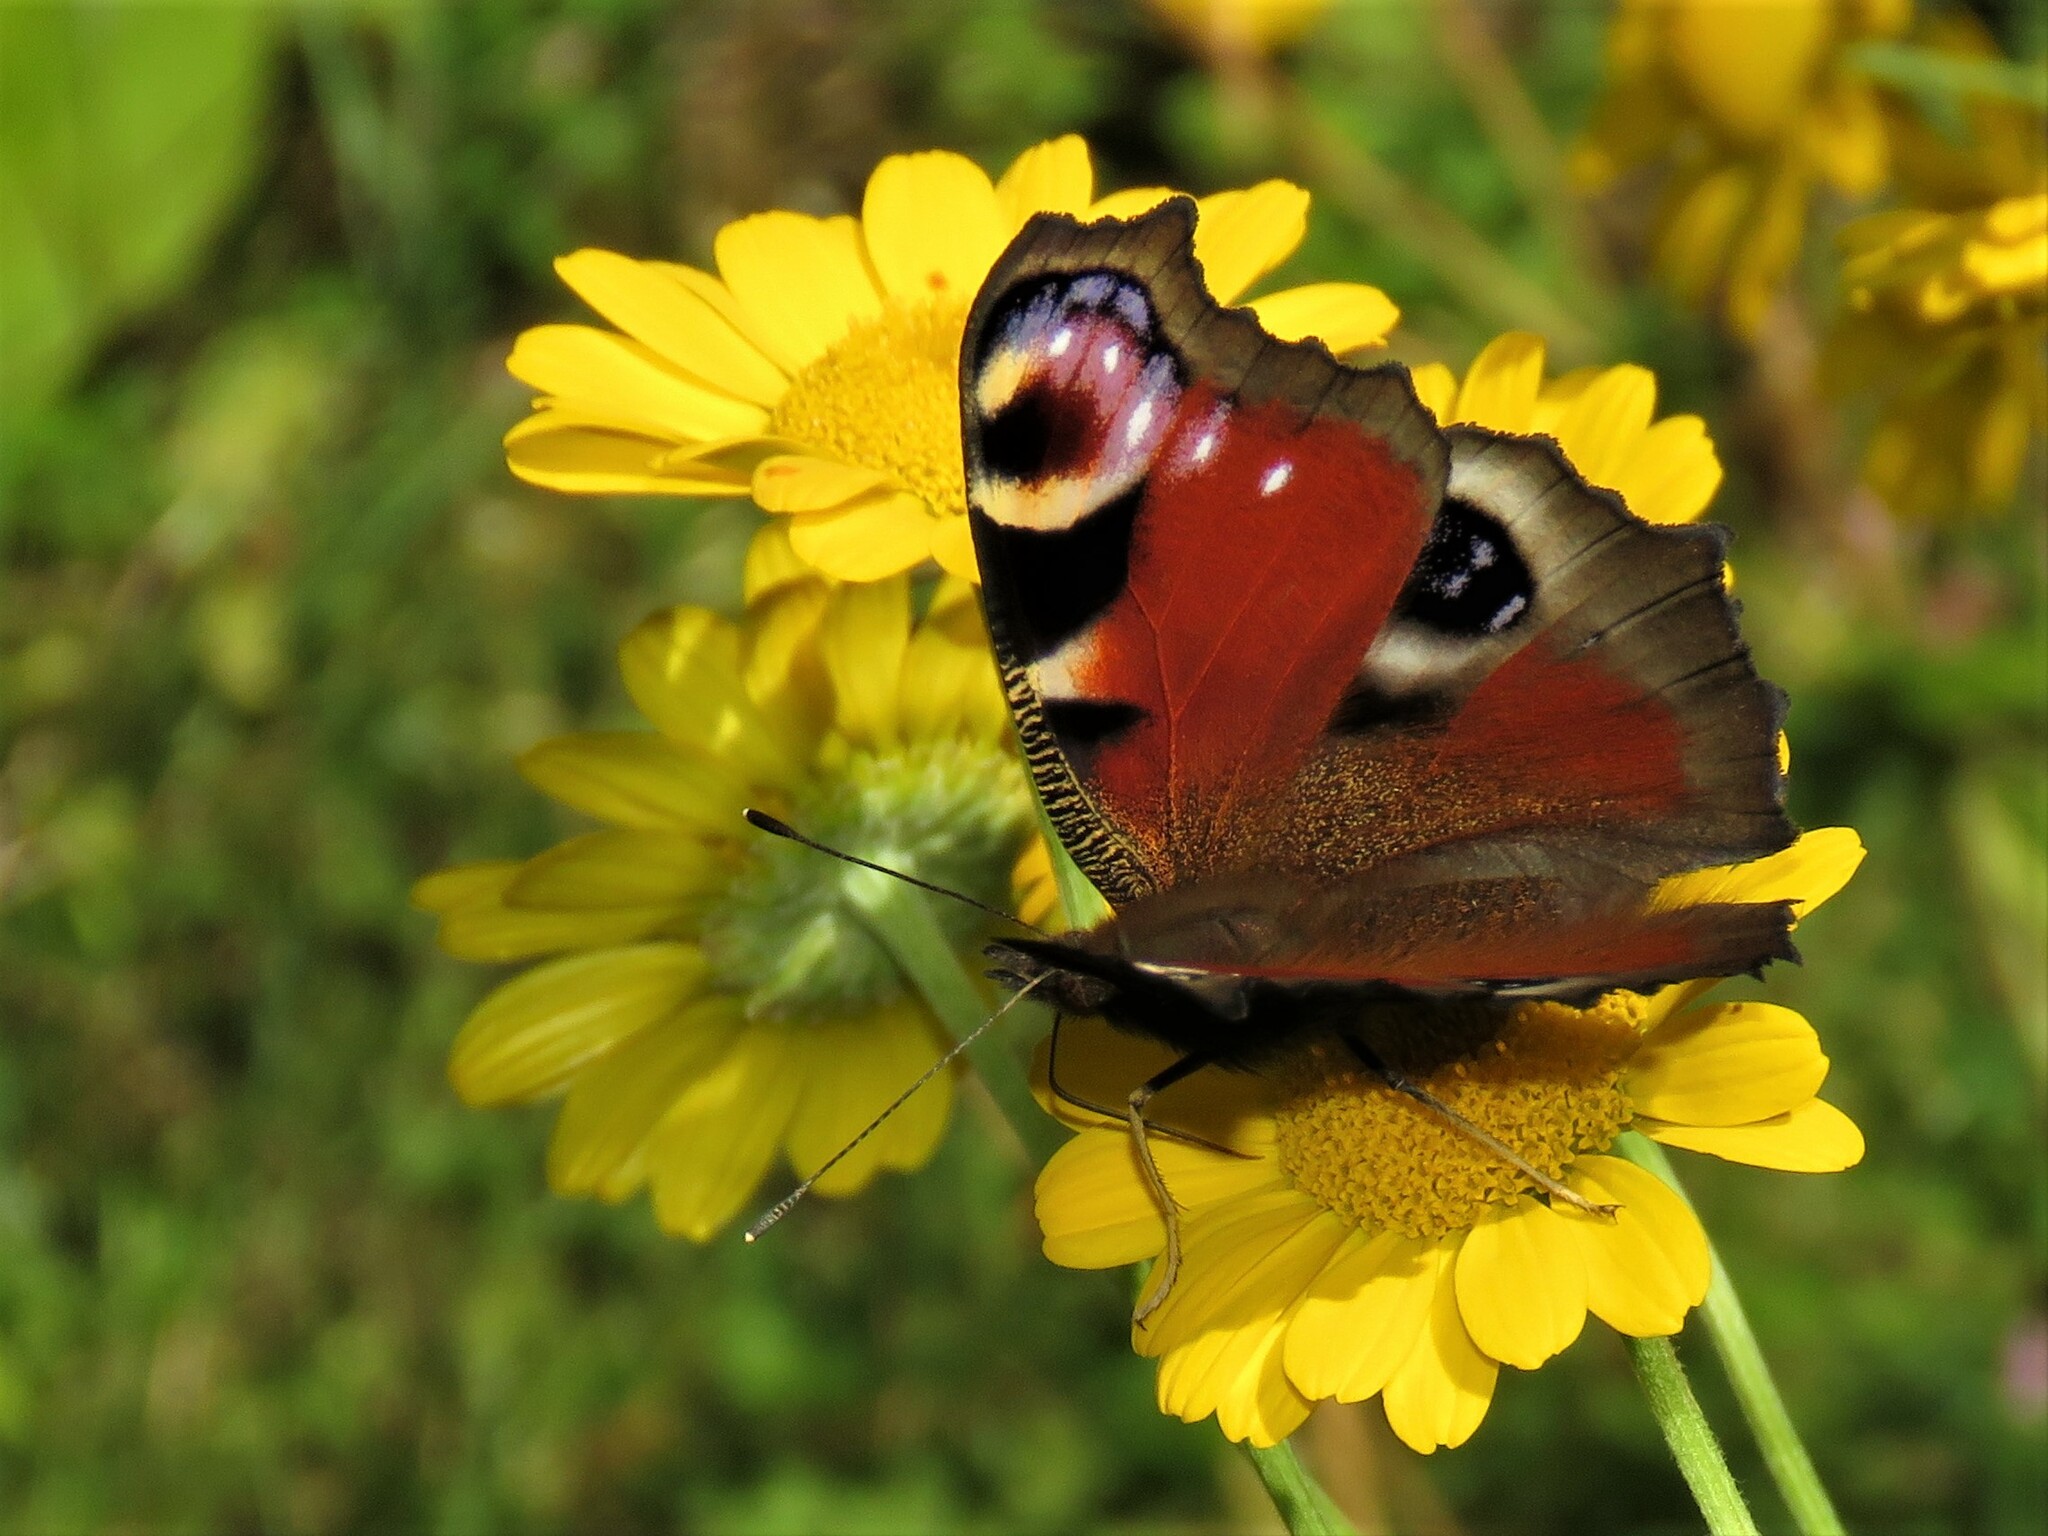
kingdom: Animalia
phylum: Arthropoda
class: Insecta
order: Lepidoptera
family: Nymphalidae
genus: Aglais
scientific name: Aglais io
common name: Peacock
